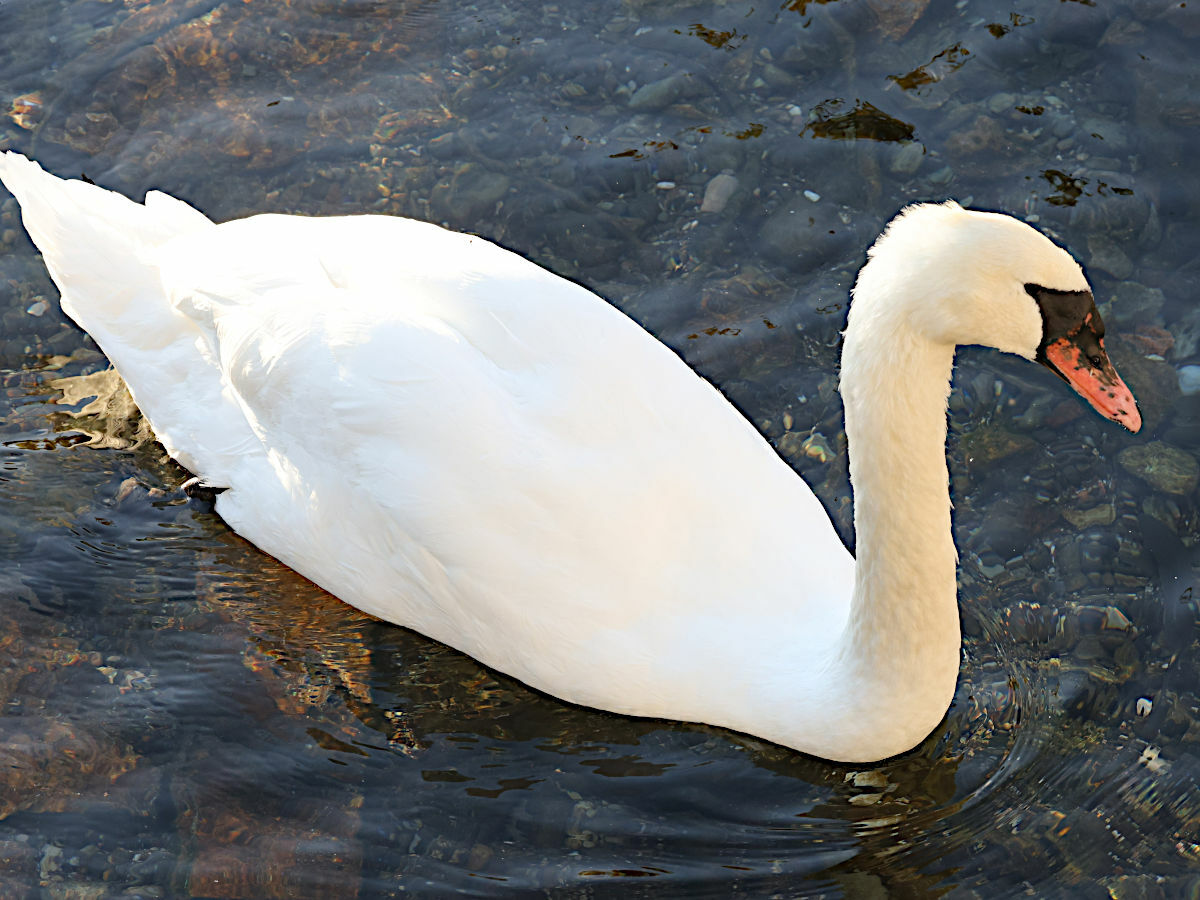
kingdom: Animalia
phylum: Chordata
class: Aves
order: Anseriformes
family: Anatidae
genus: Cygnus
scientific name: Cygnus olor
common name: Mute swan
